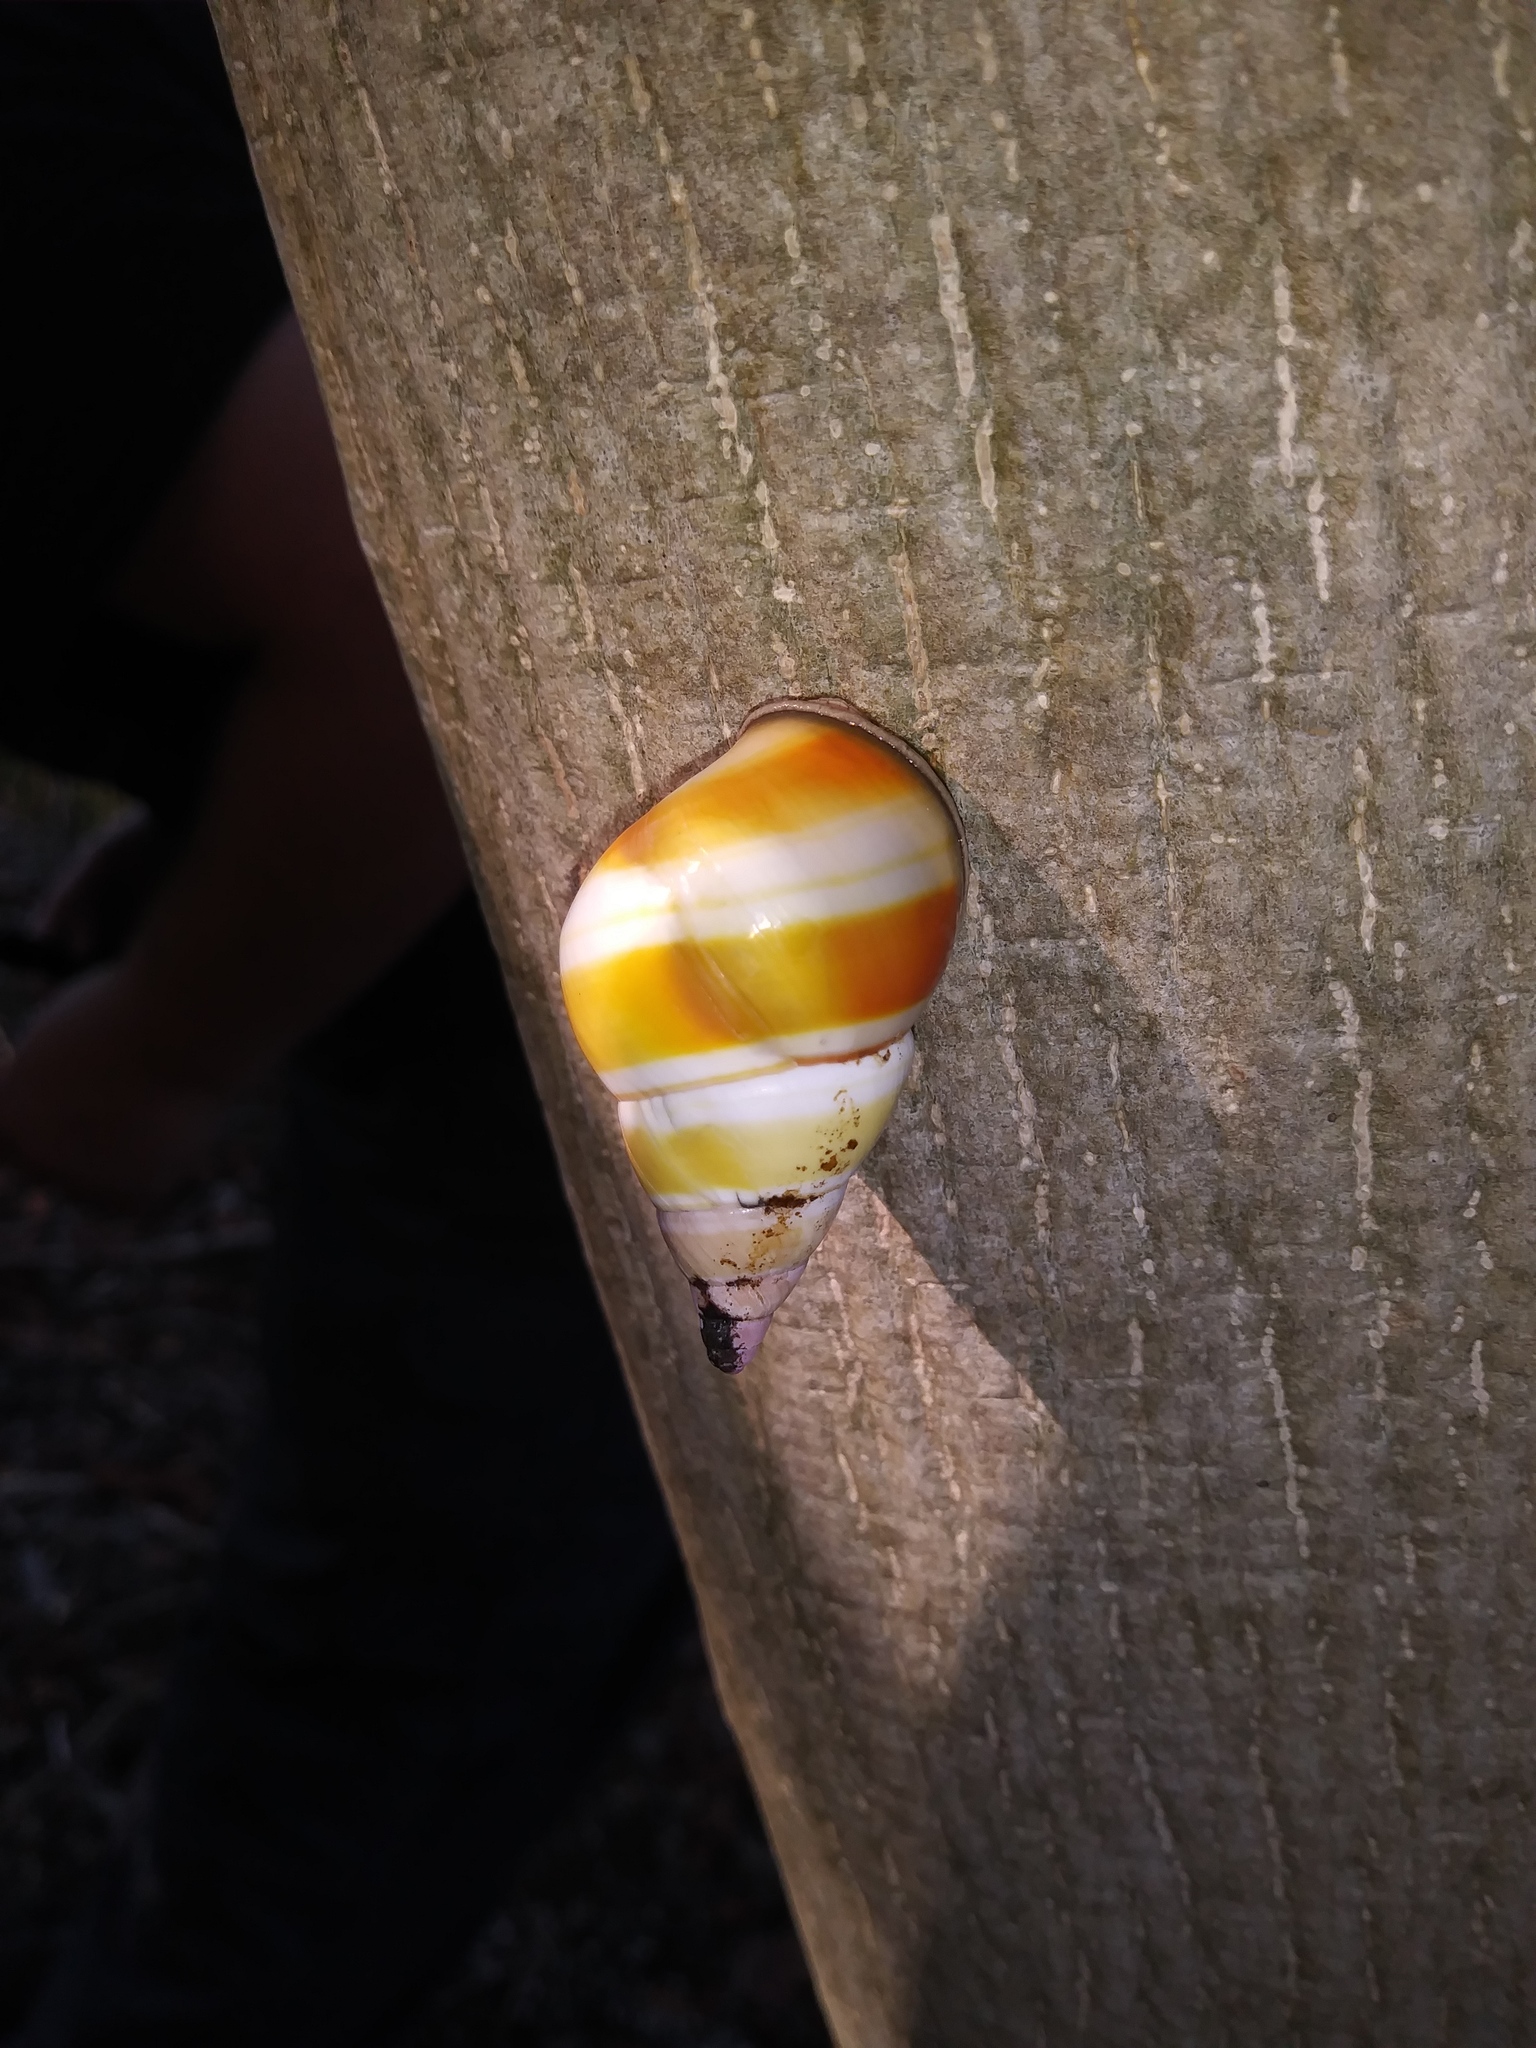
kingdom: Animalia
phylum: Mollusca
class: Gastropoda
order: Stylommatophora
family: Orthalicidae
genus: Liguus
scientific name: Liguus fasciatus
